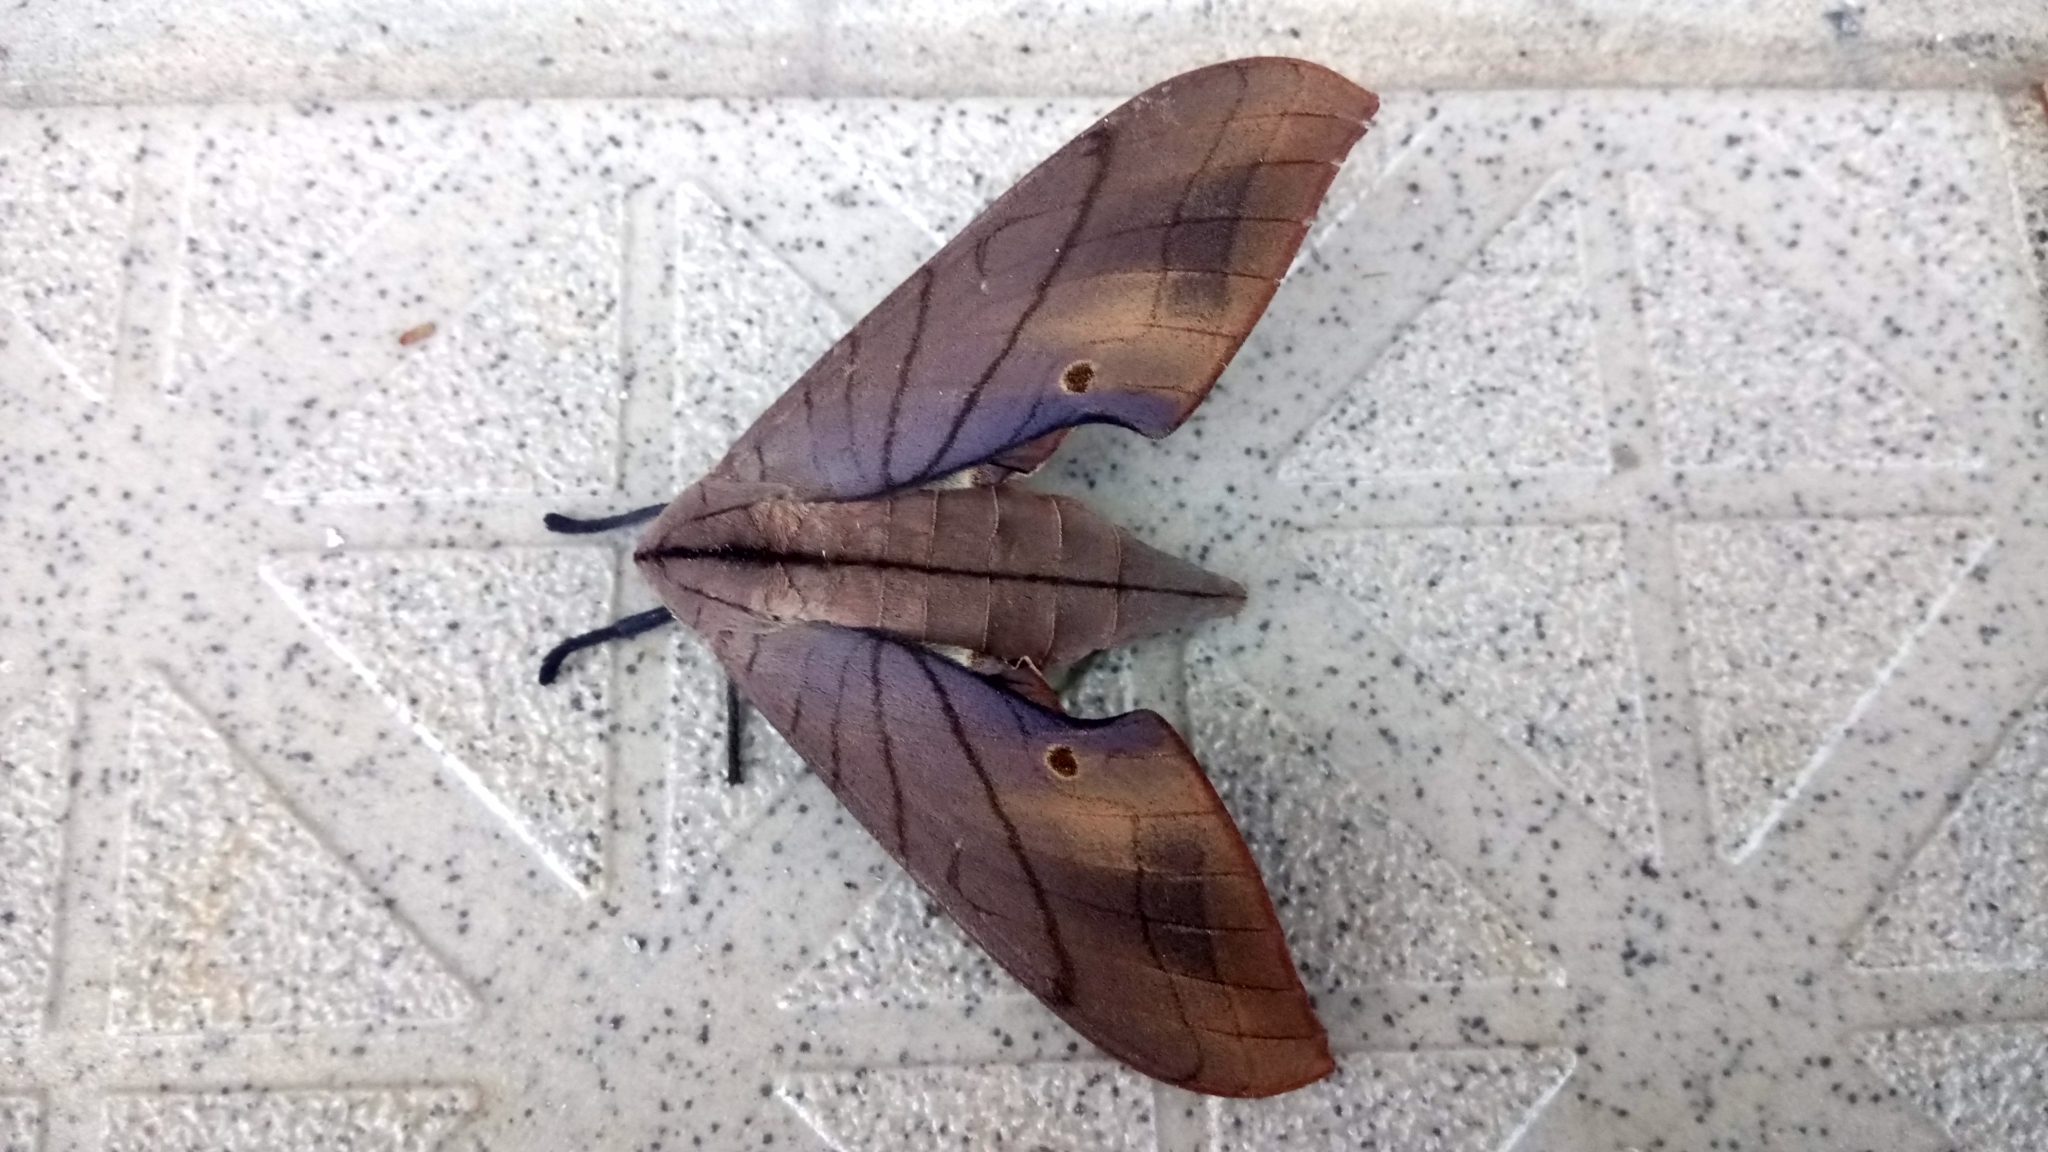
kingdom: Animalia
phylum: Arthropoda
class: Insecta
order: Lepidoptera
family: Sphingidae
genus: Marumba
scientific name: Marumba cristata
